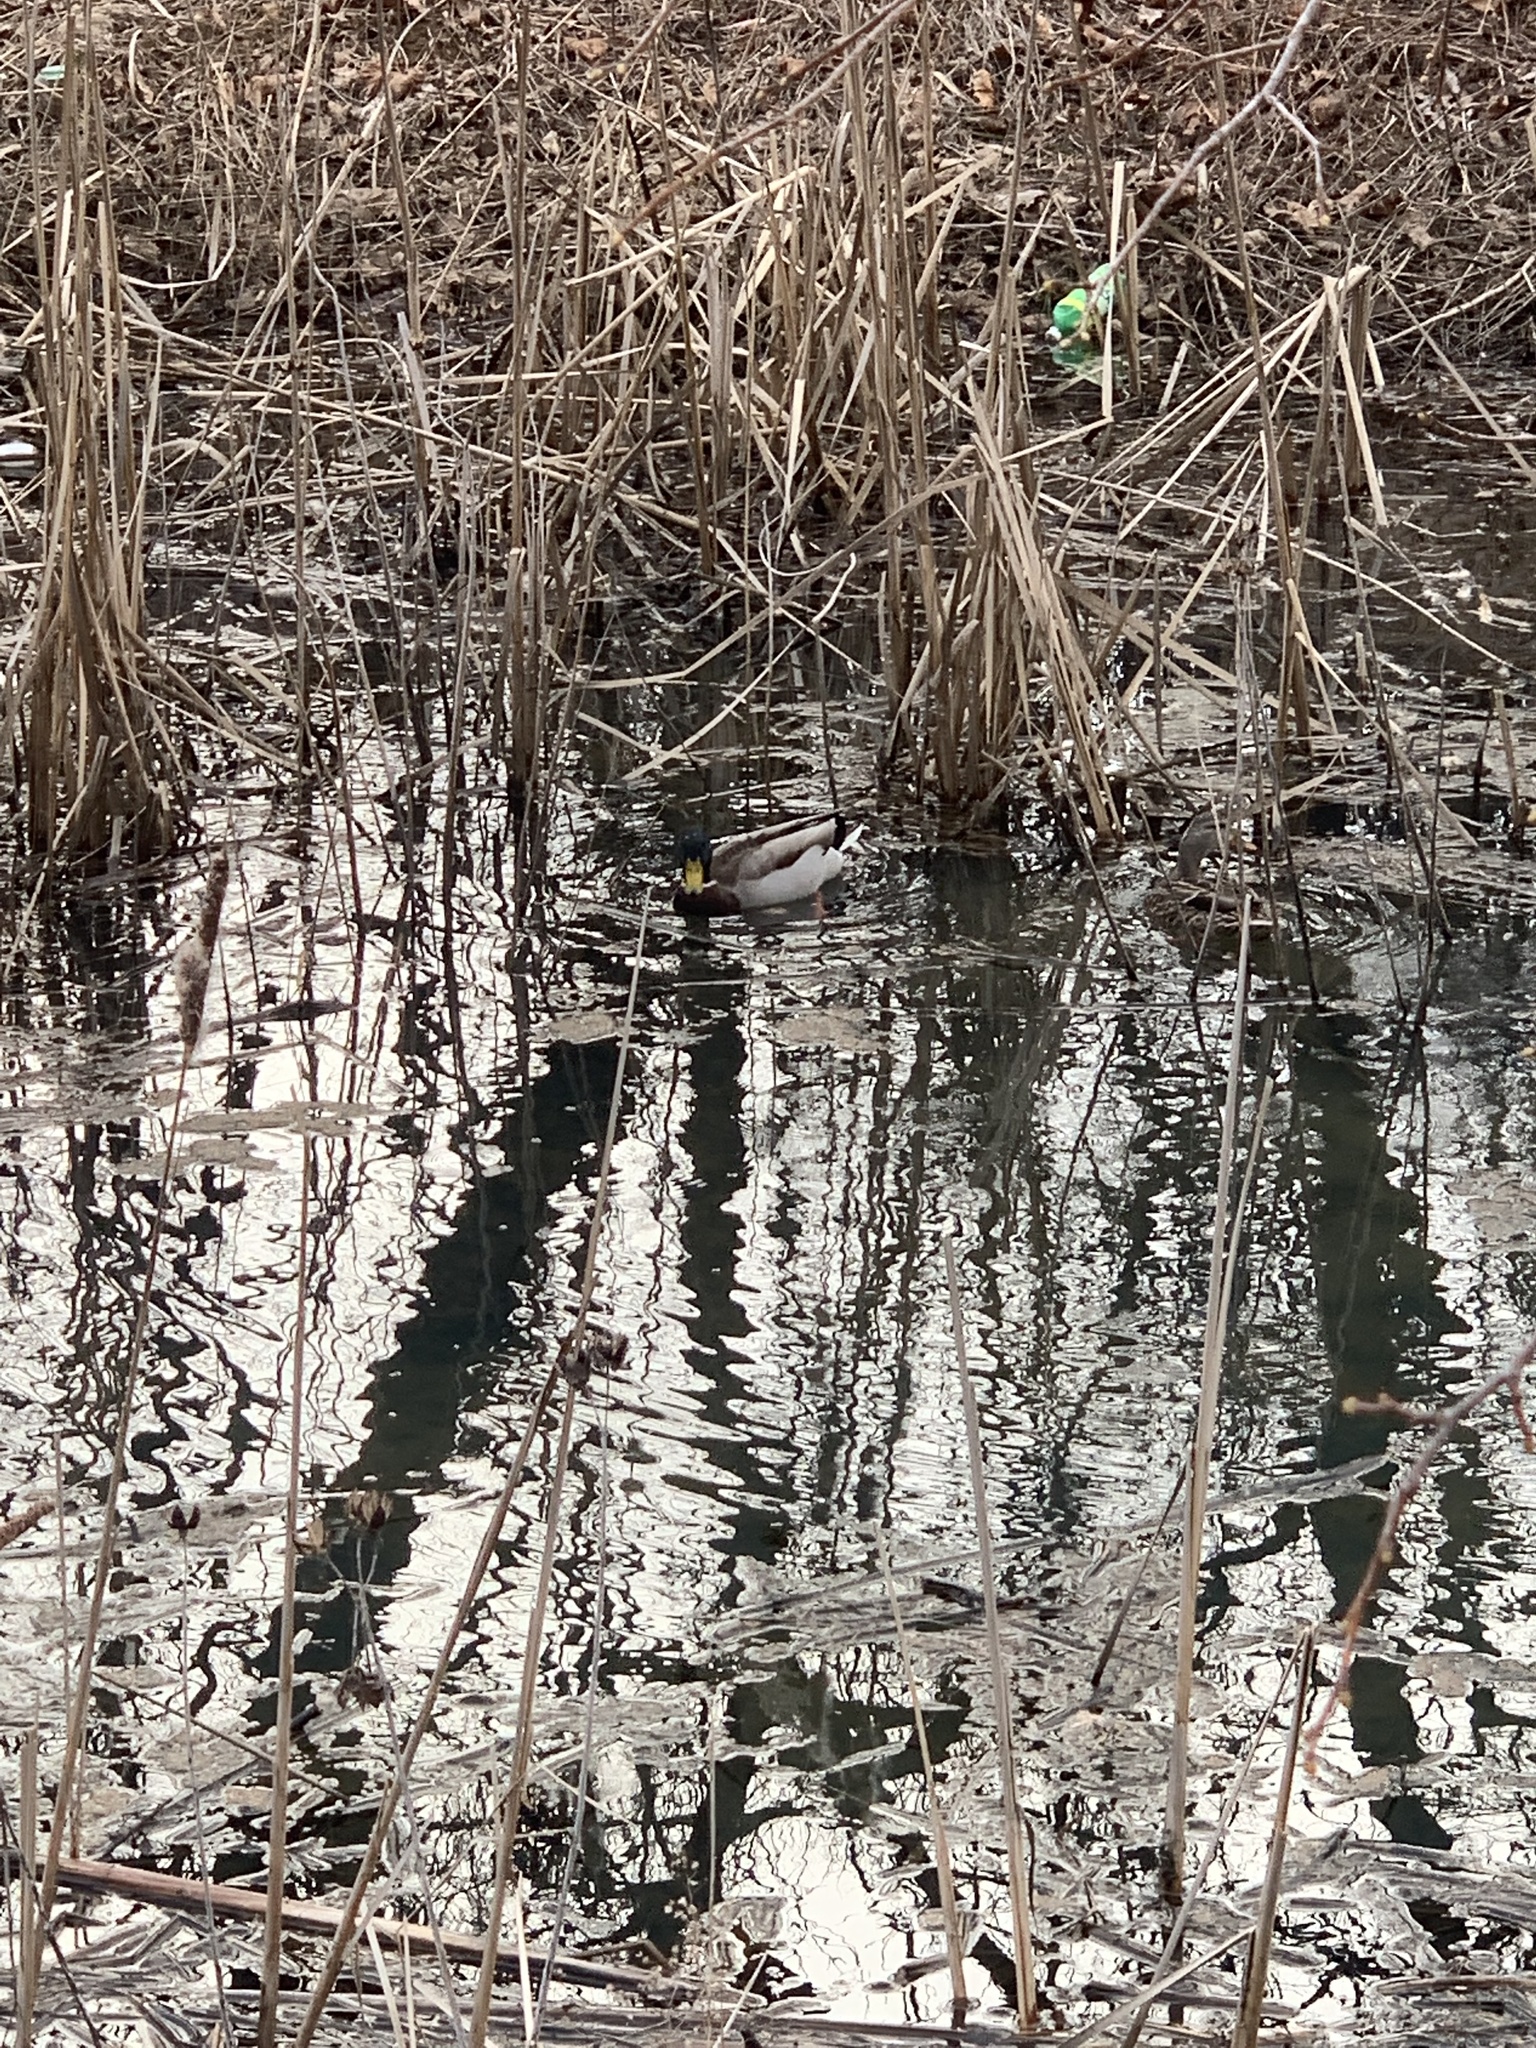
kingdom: Animalia
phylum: Chordata
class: Aves
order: Anseriformes
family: Anatidae
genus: Anas
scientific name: Anas platyrhynchos
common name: Mallard
